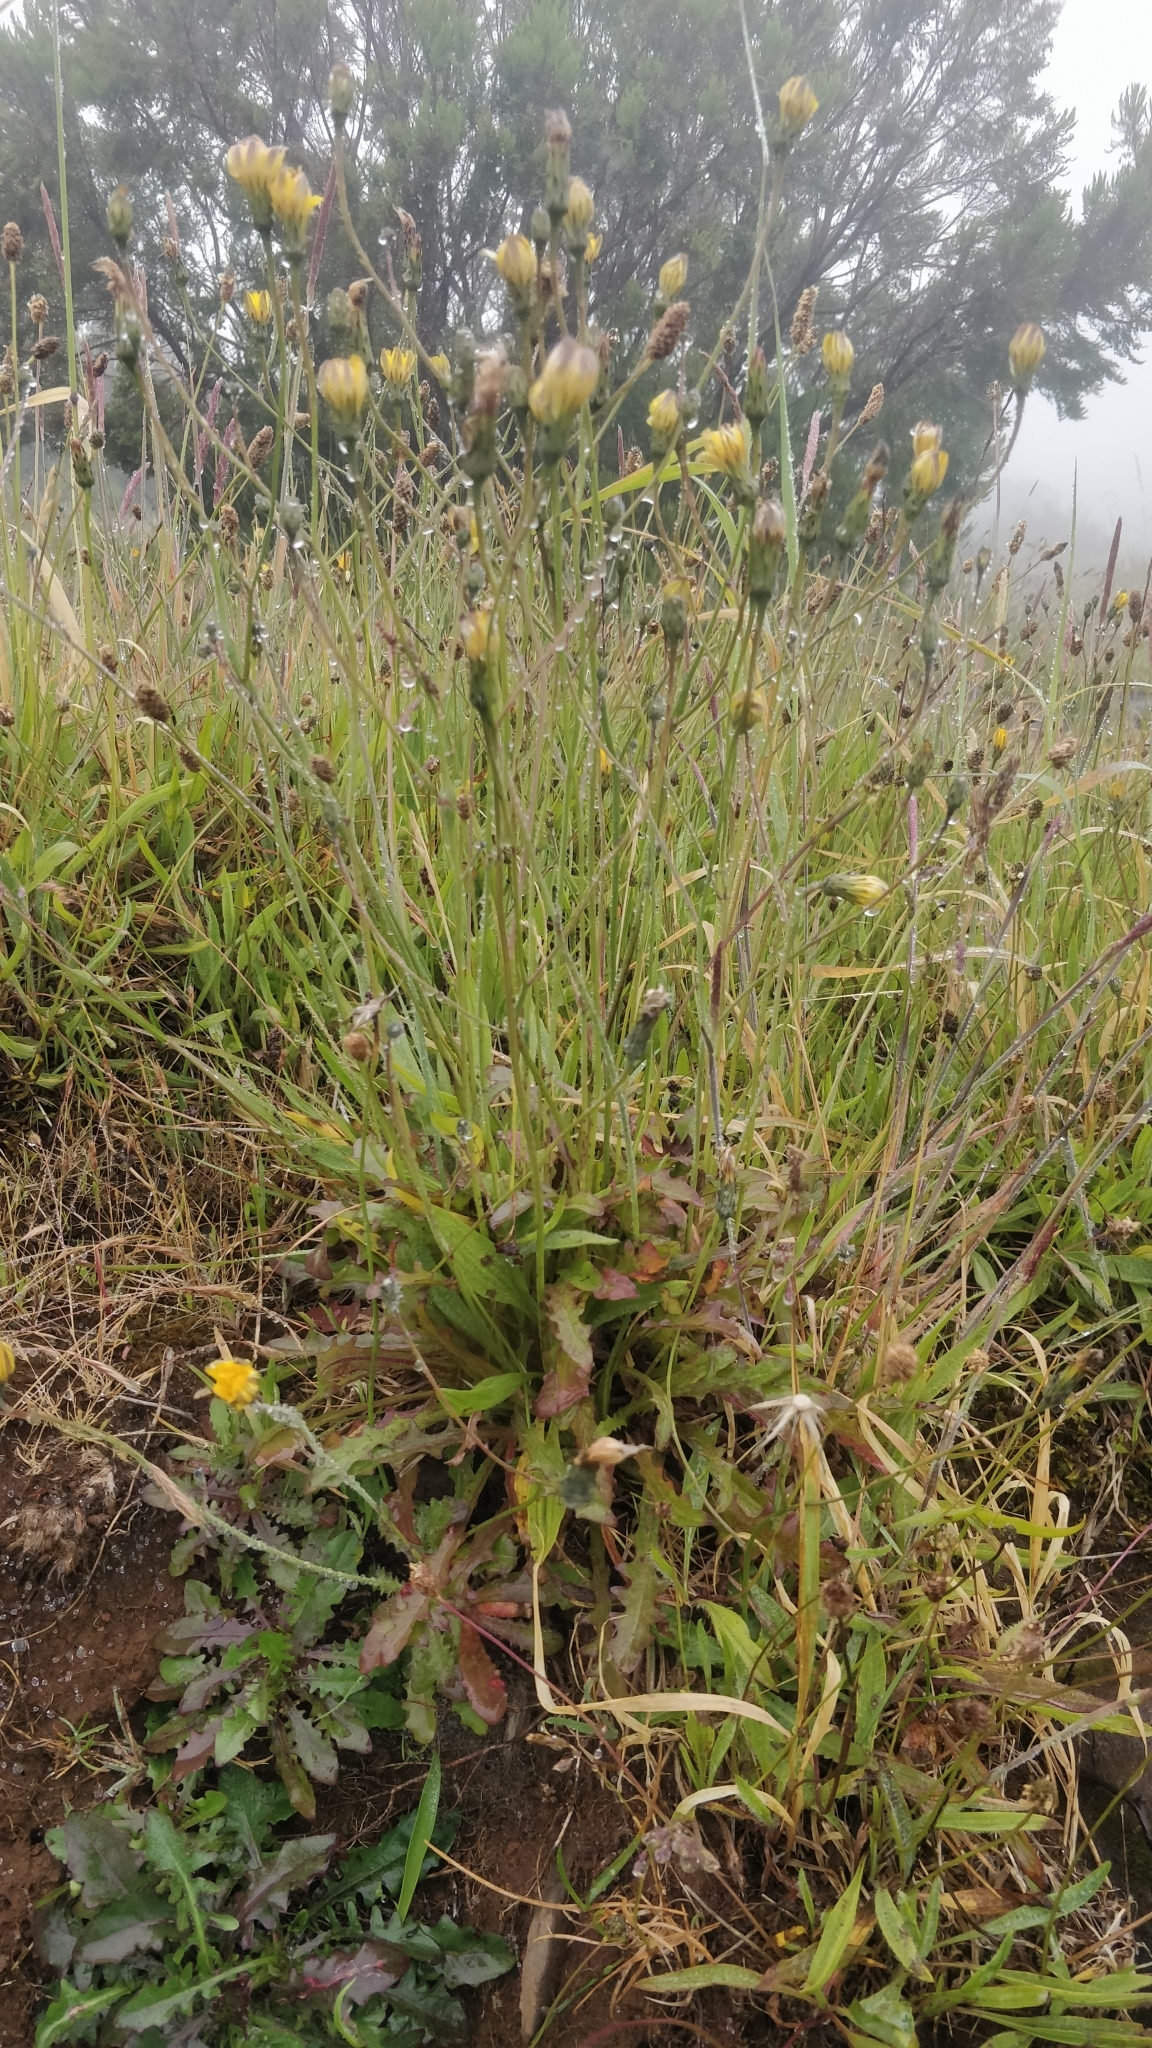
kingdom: Plantae
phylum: Tracheophyta
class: Magnoliopsida
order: Asterales
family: Asteraceae
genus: Hypochaeris
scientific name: Hypochaeris radicata
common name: Flatweed
